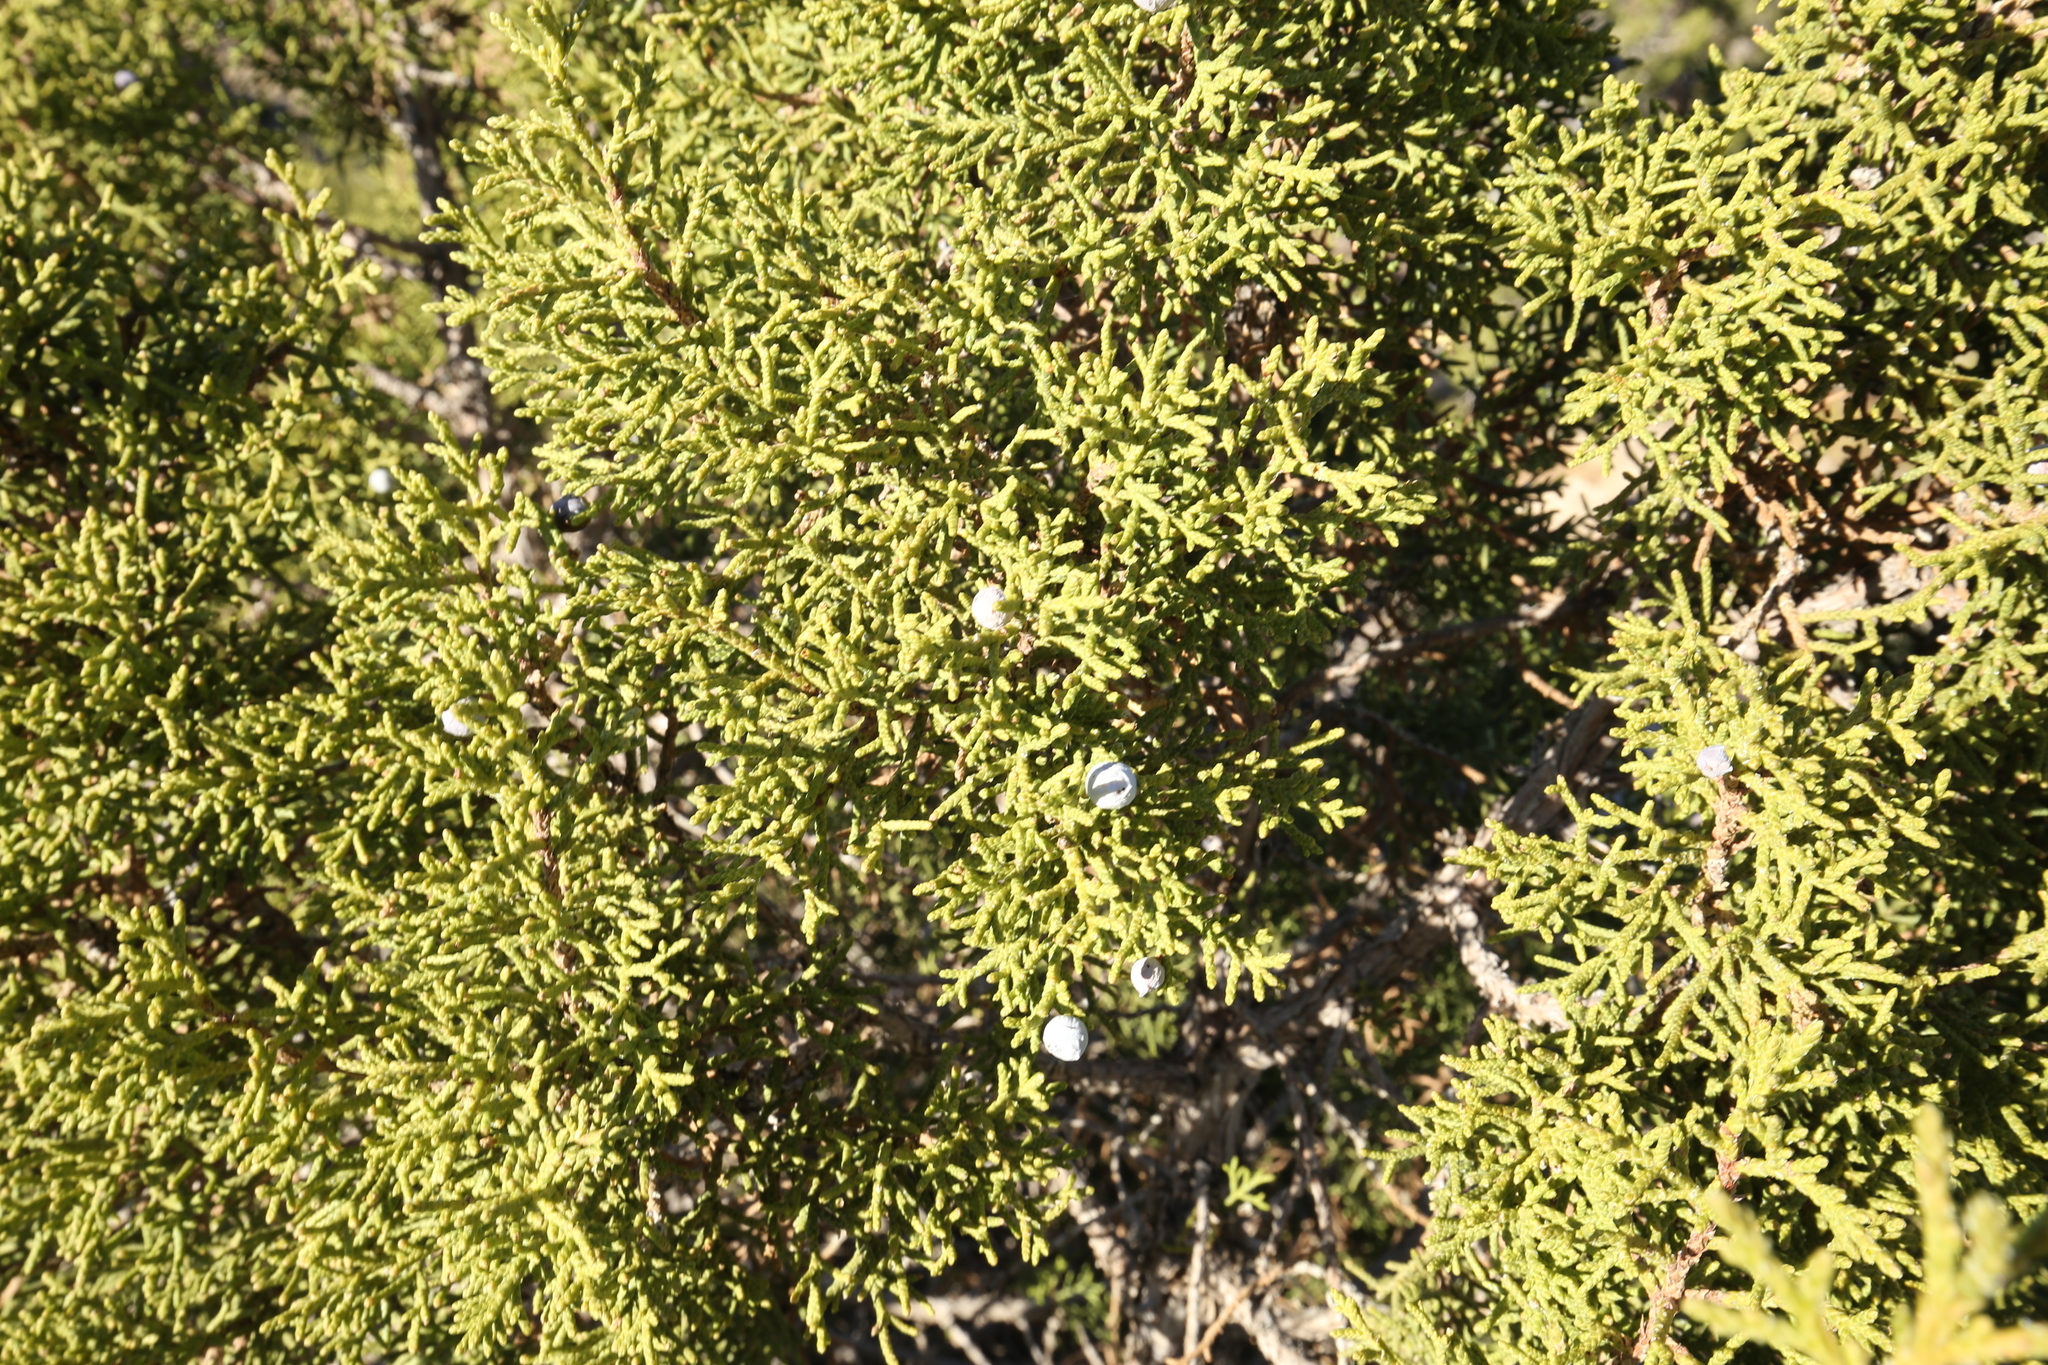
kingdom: Plantae
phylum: Tracheophyta
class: Pinopsida
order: Pinales
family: Cupressaceae
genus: Juniperus
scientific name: Juniperus osteosperma
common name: Utah juniper
